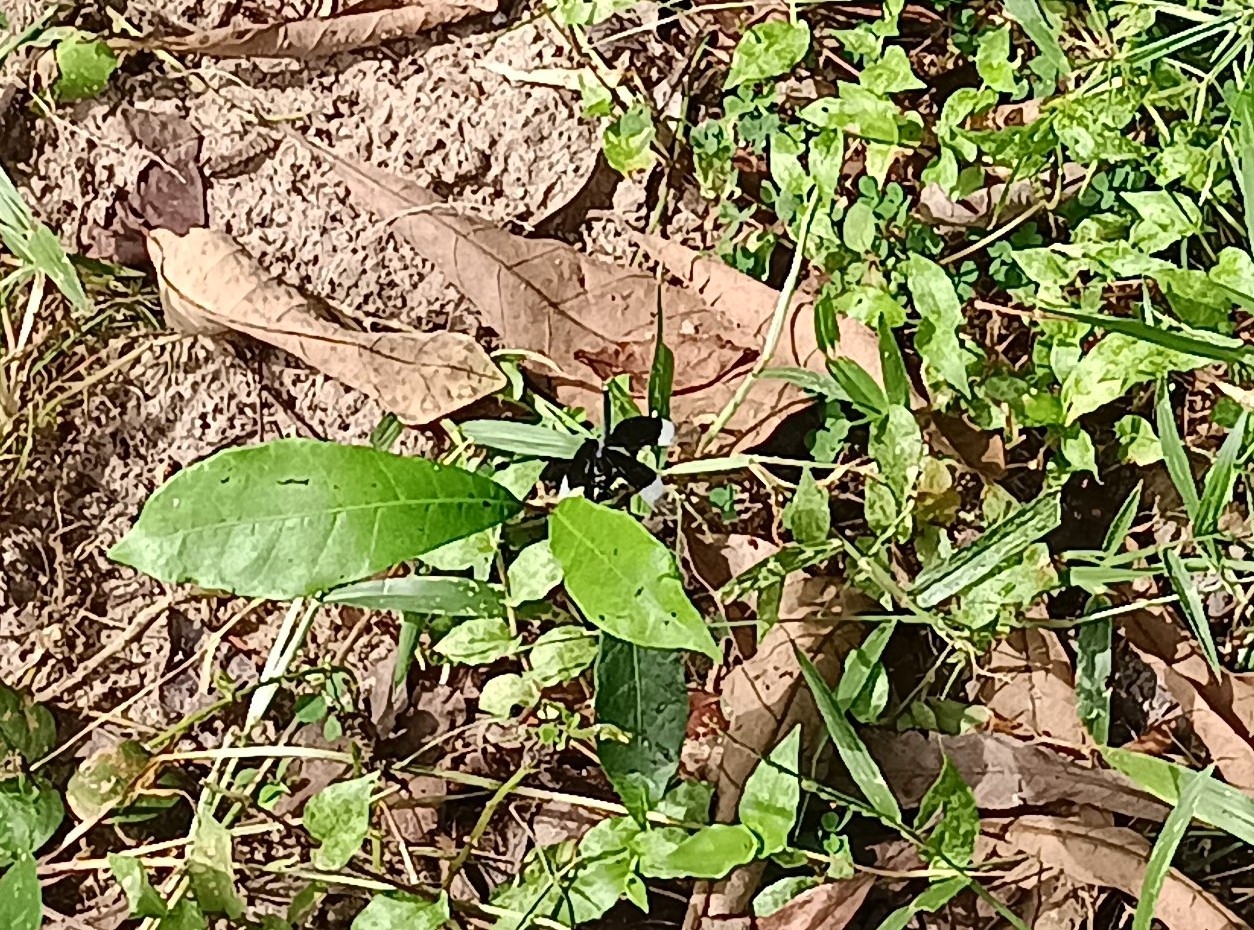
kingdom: Animalia
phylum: Arthropoda
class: Insecta
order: Odonata
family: Libellulidae
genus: Neurothemis
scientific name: Neurothemis tullia
